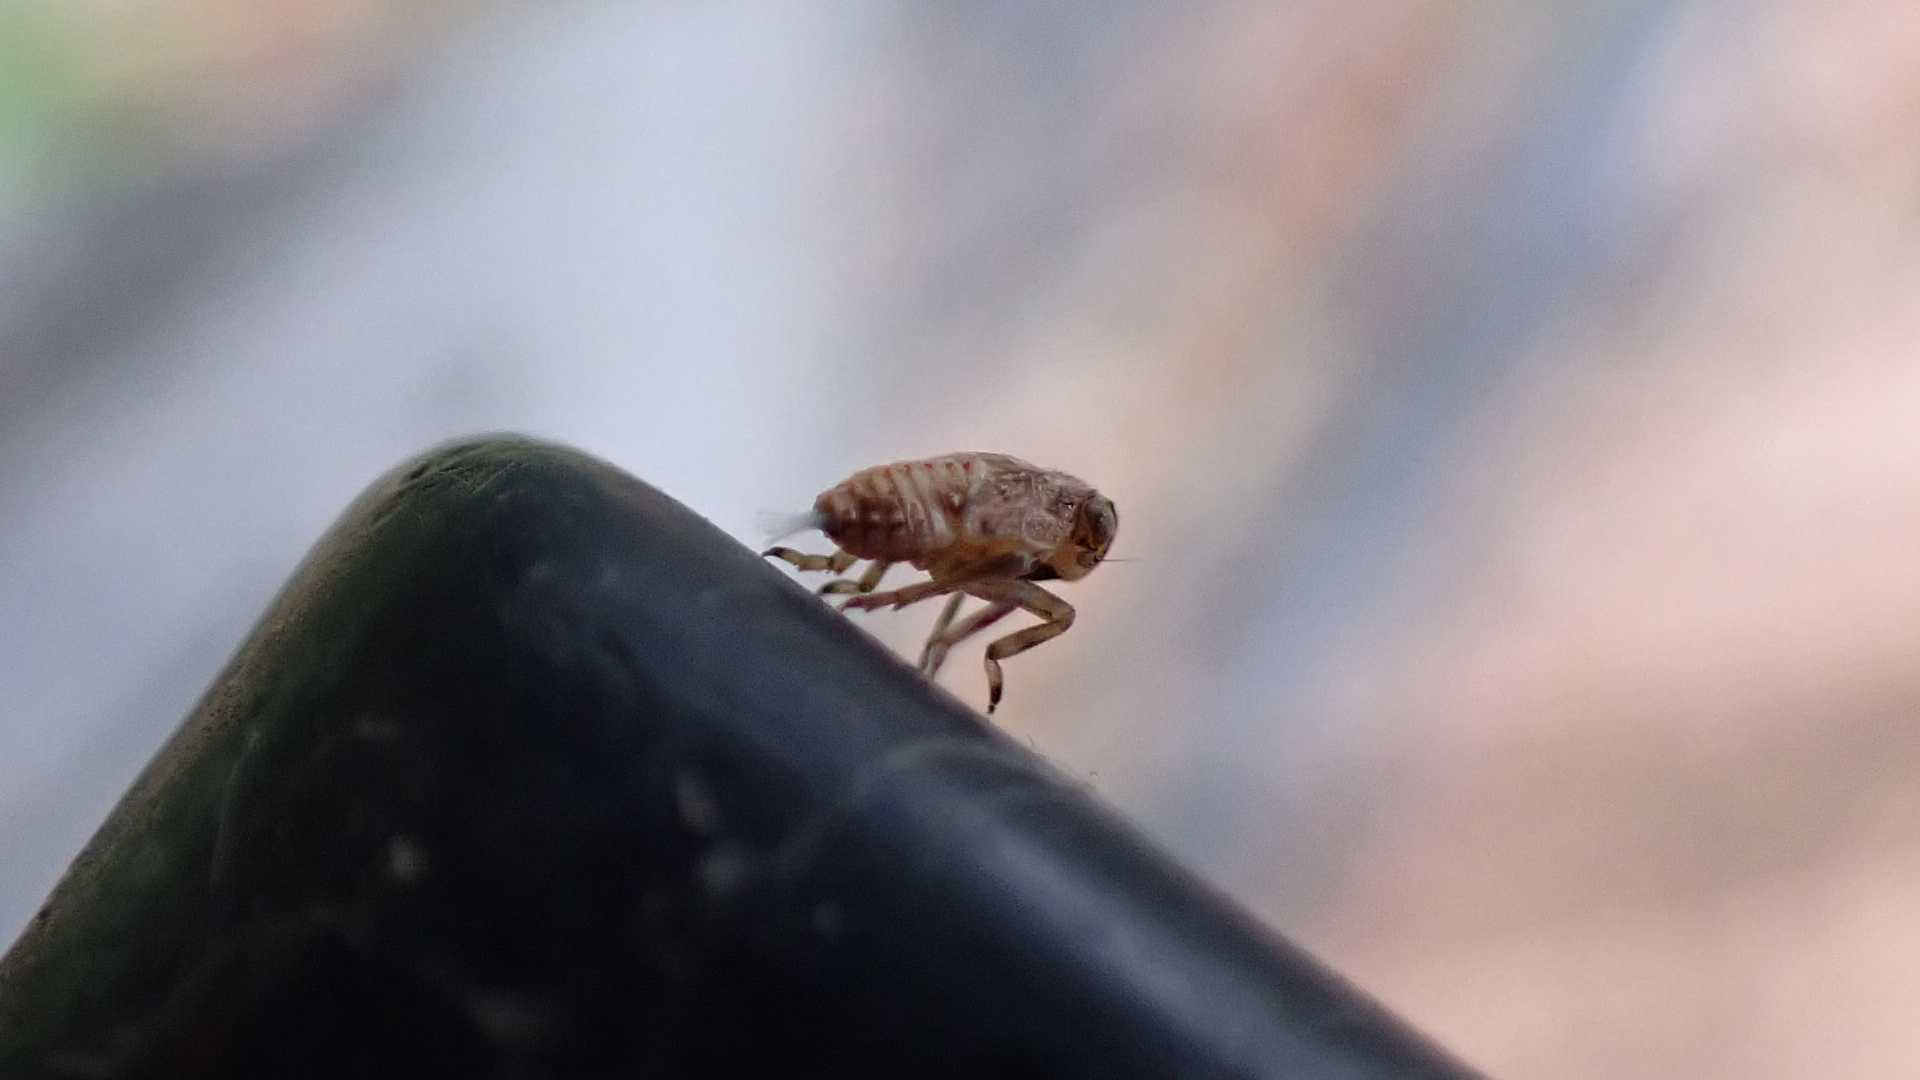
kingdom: Animalia
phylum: Arthropoda
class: Insecta
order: Hemiptera
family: Issidae
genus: Issus
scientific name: Issus
